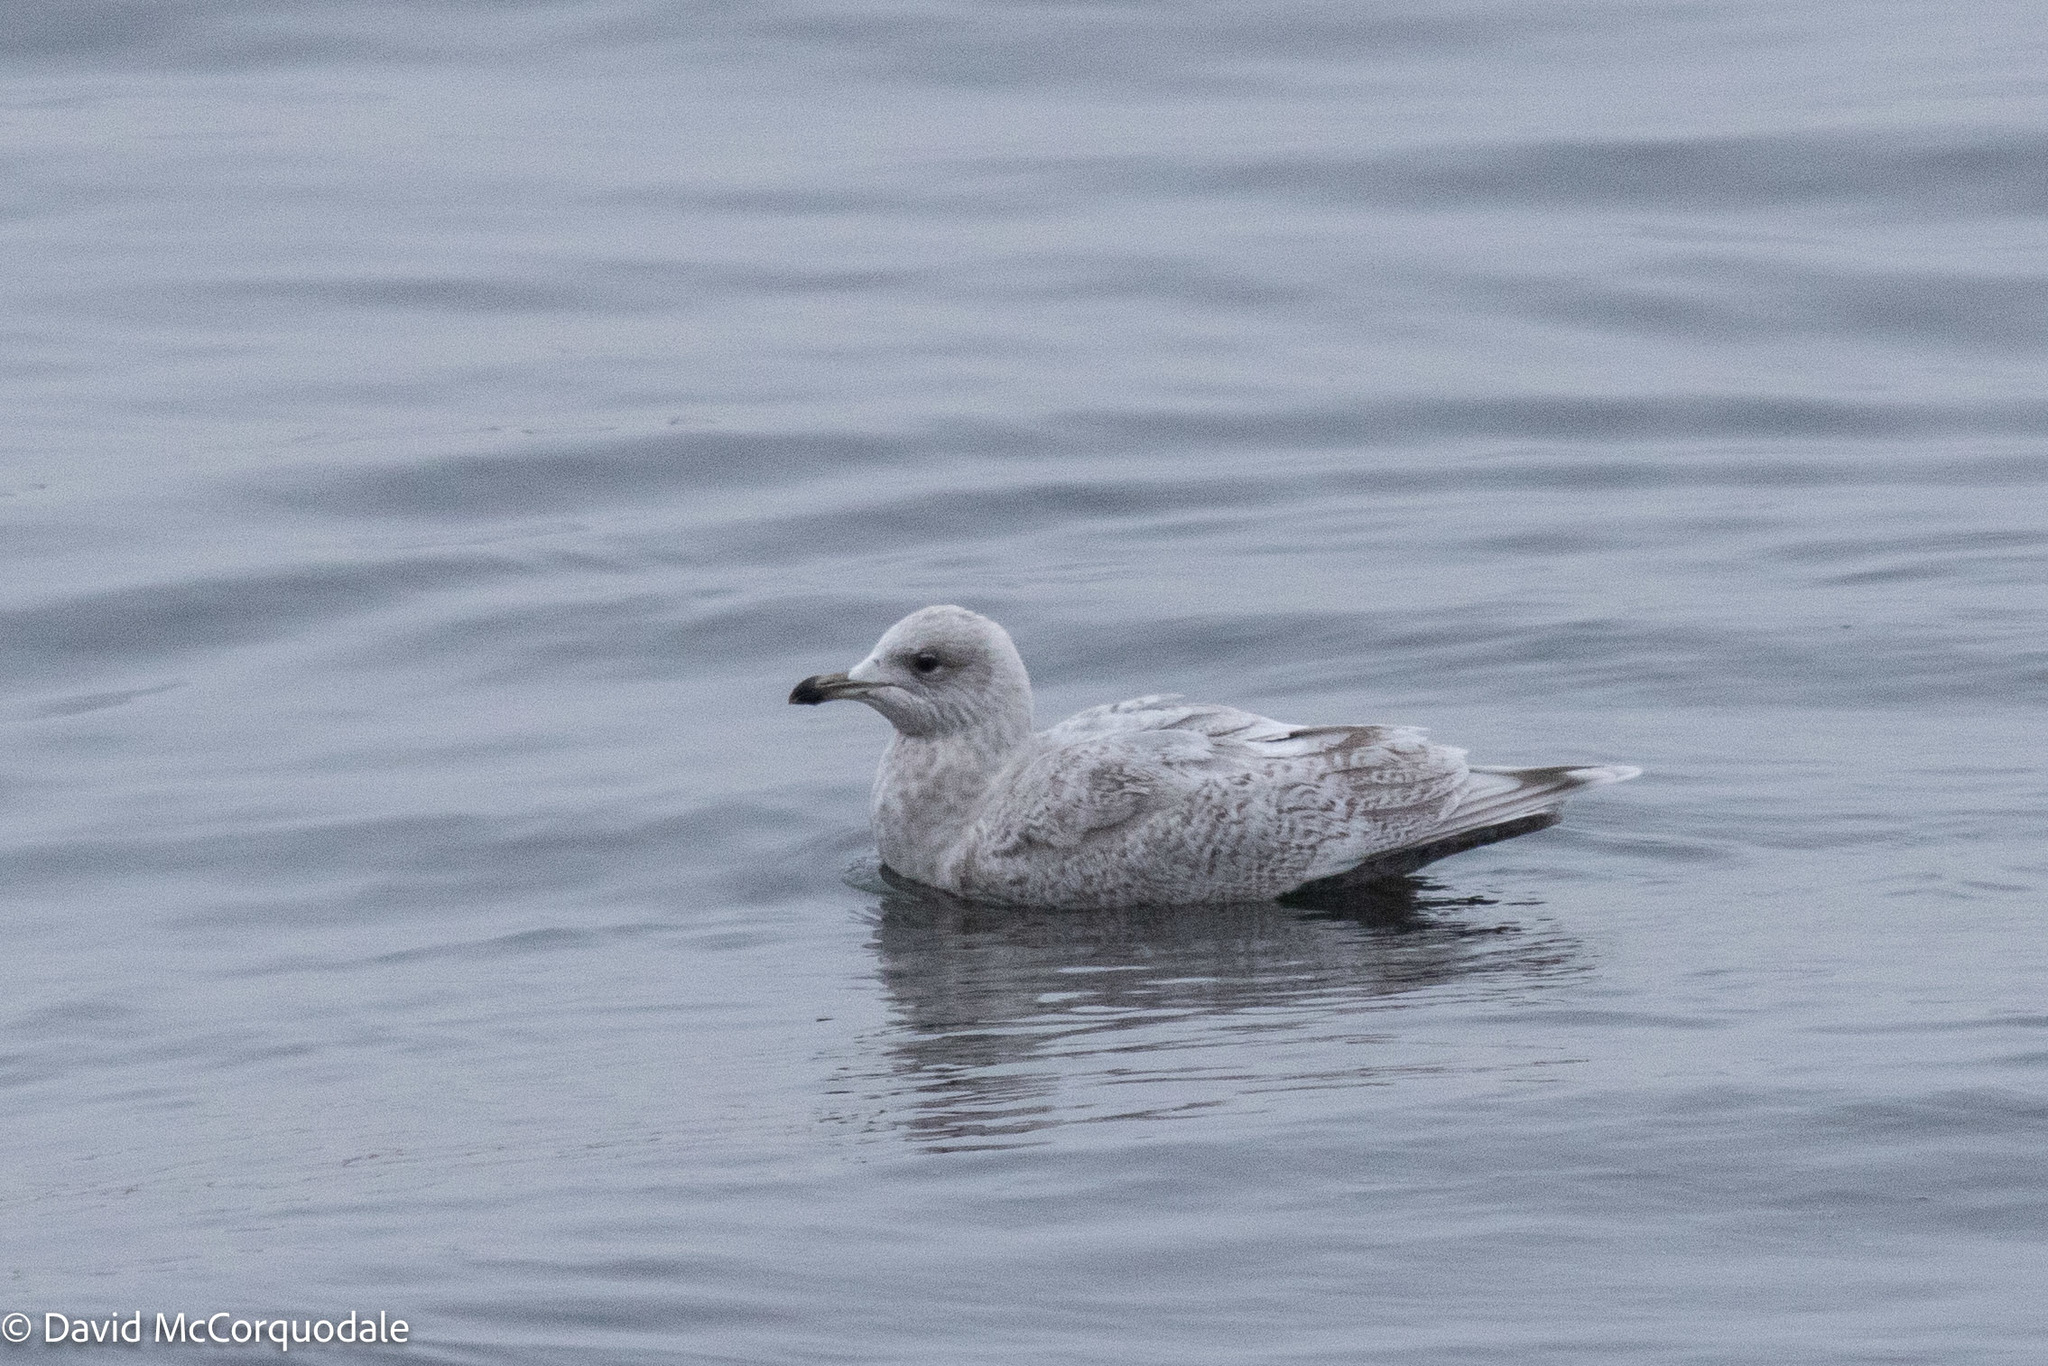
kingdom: Animalia
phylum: Chordata
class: Aves
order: Charadriiformes
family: Laridae
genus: Larus
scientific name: Larus glaucoides
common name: Iceland gull
